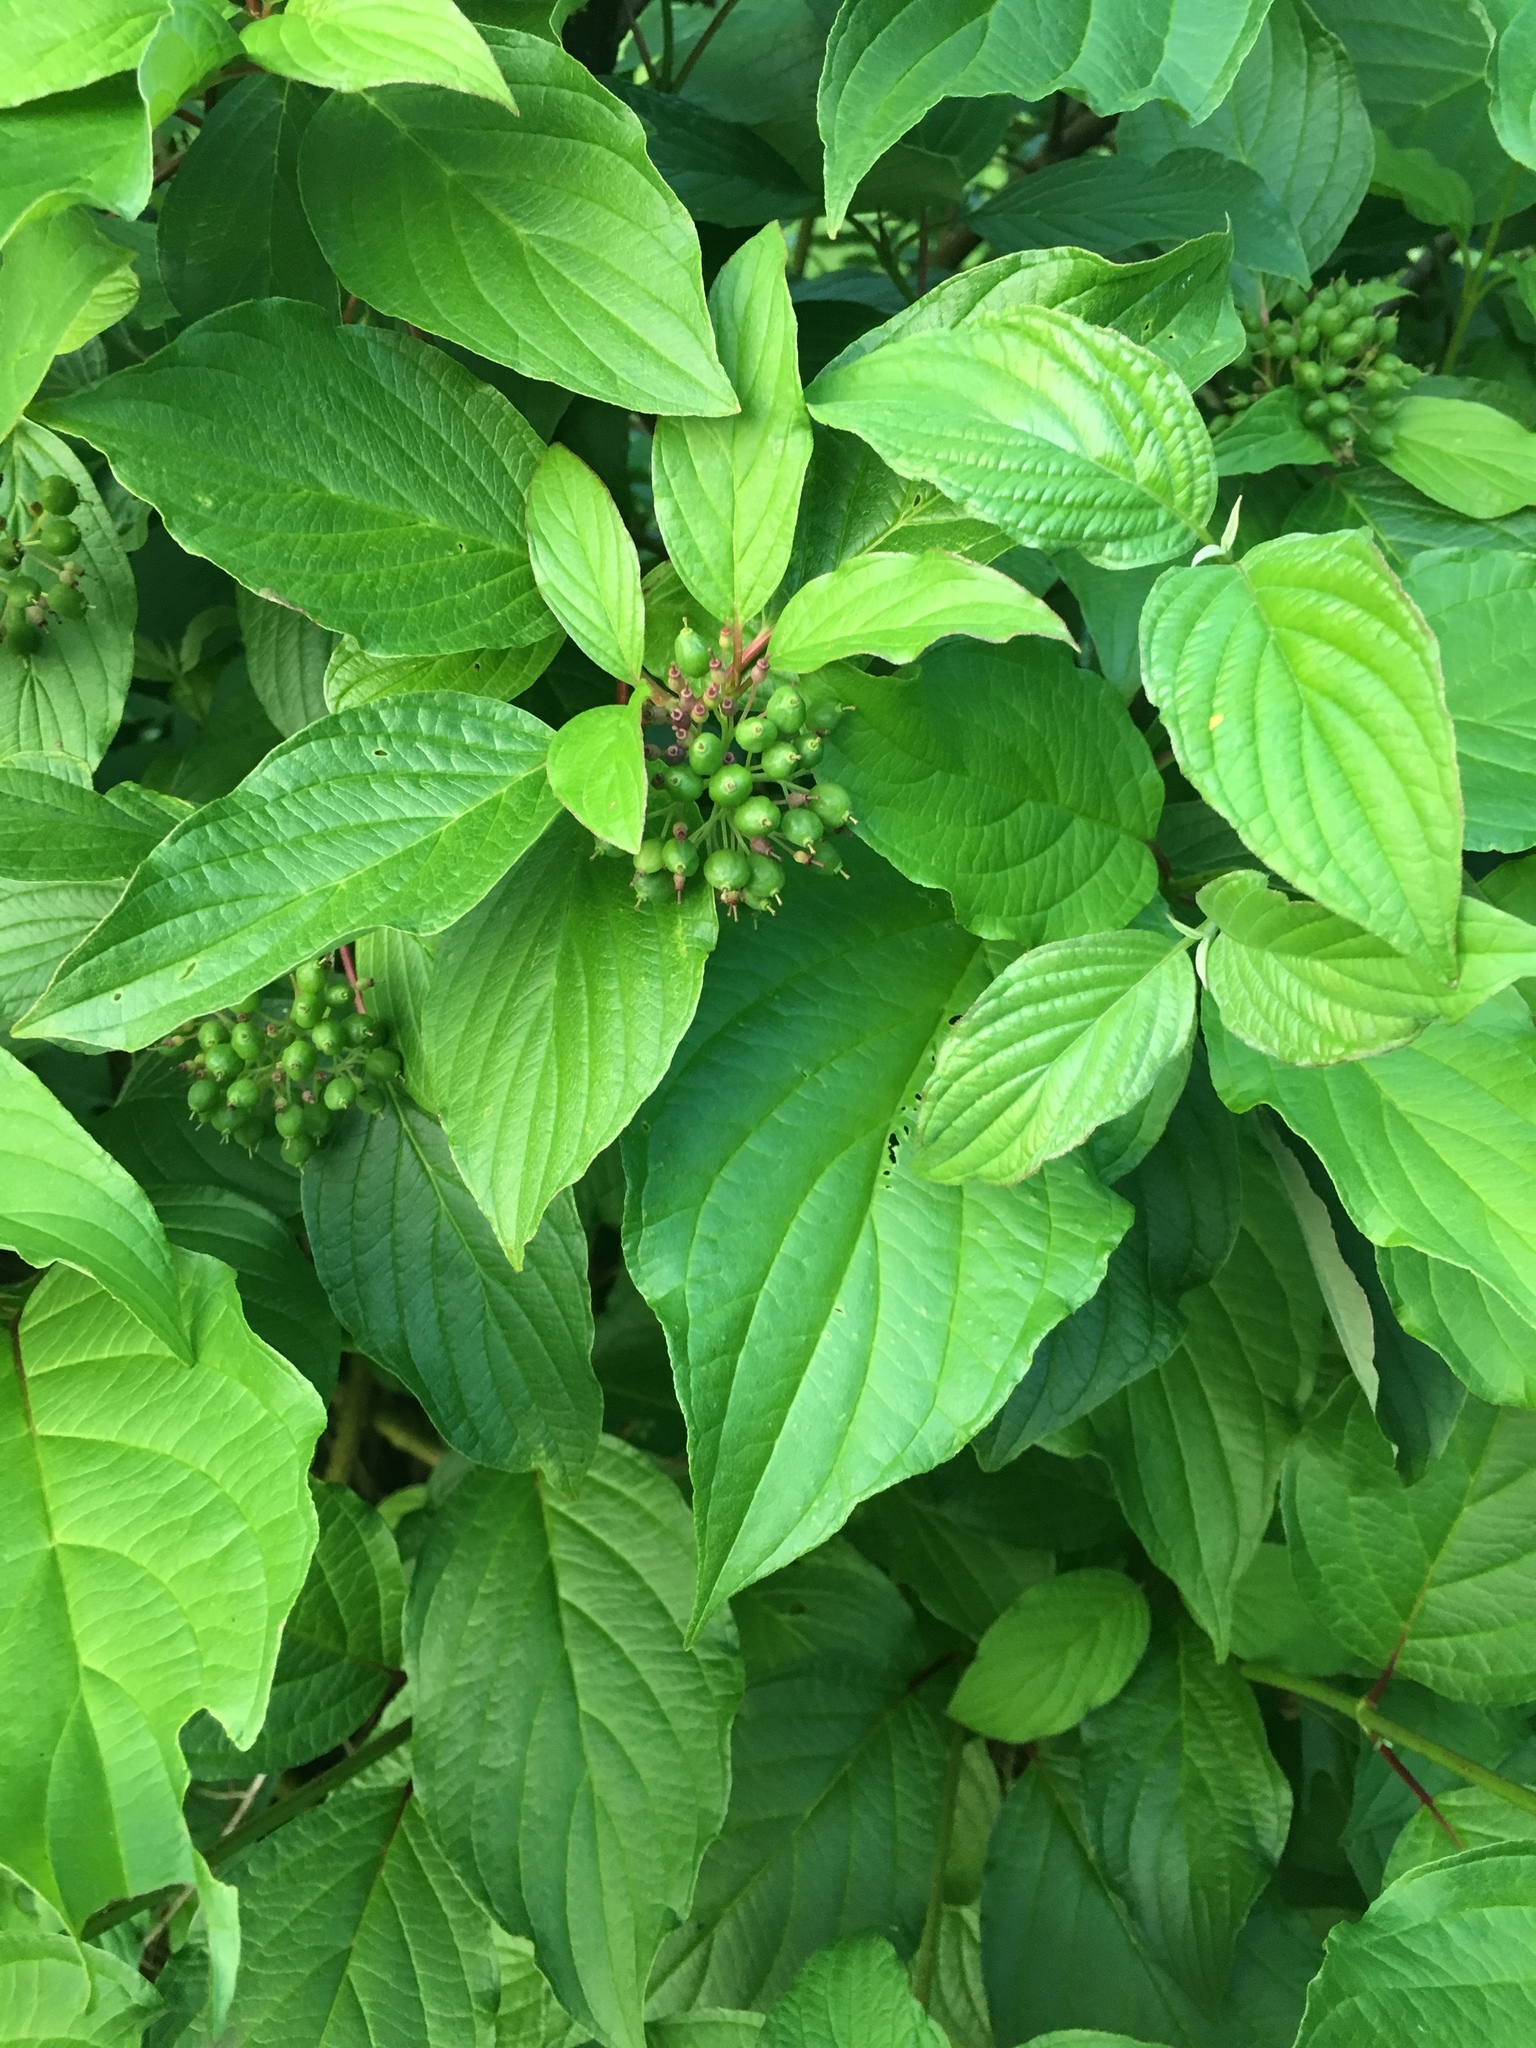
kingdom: Plantae
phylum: Tracheophyta
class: Magnoliopsida
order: Cornales
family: Cornaceae
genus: Cornus
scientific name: Cornus sanguinea
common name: Dogwood
